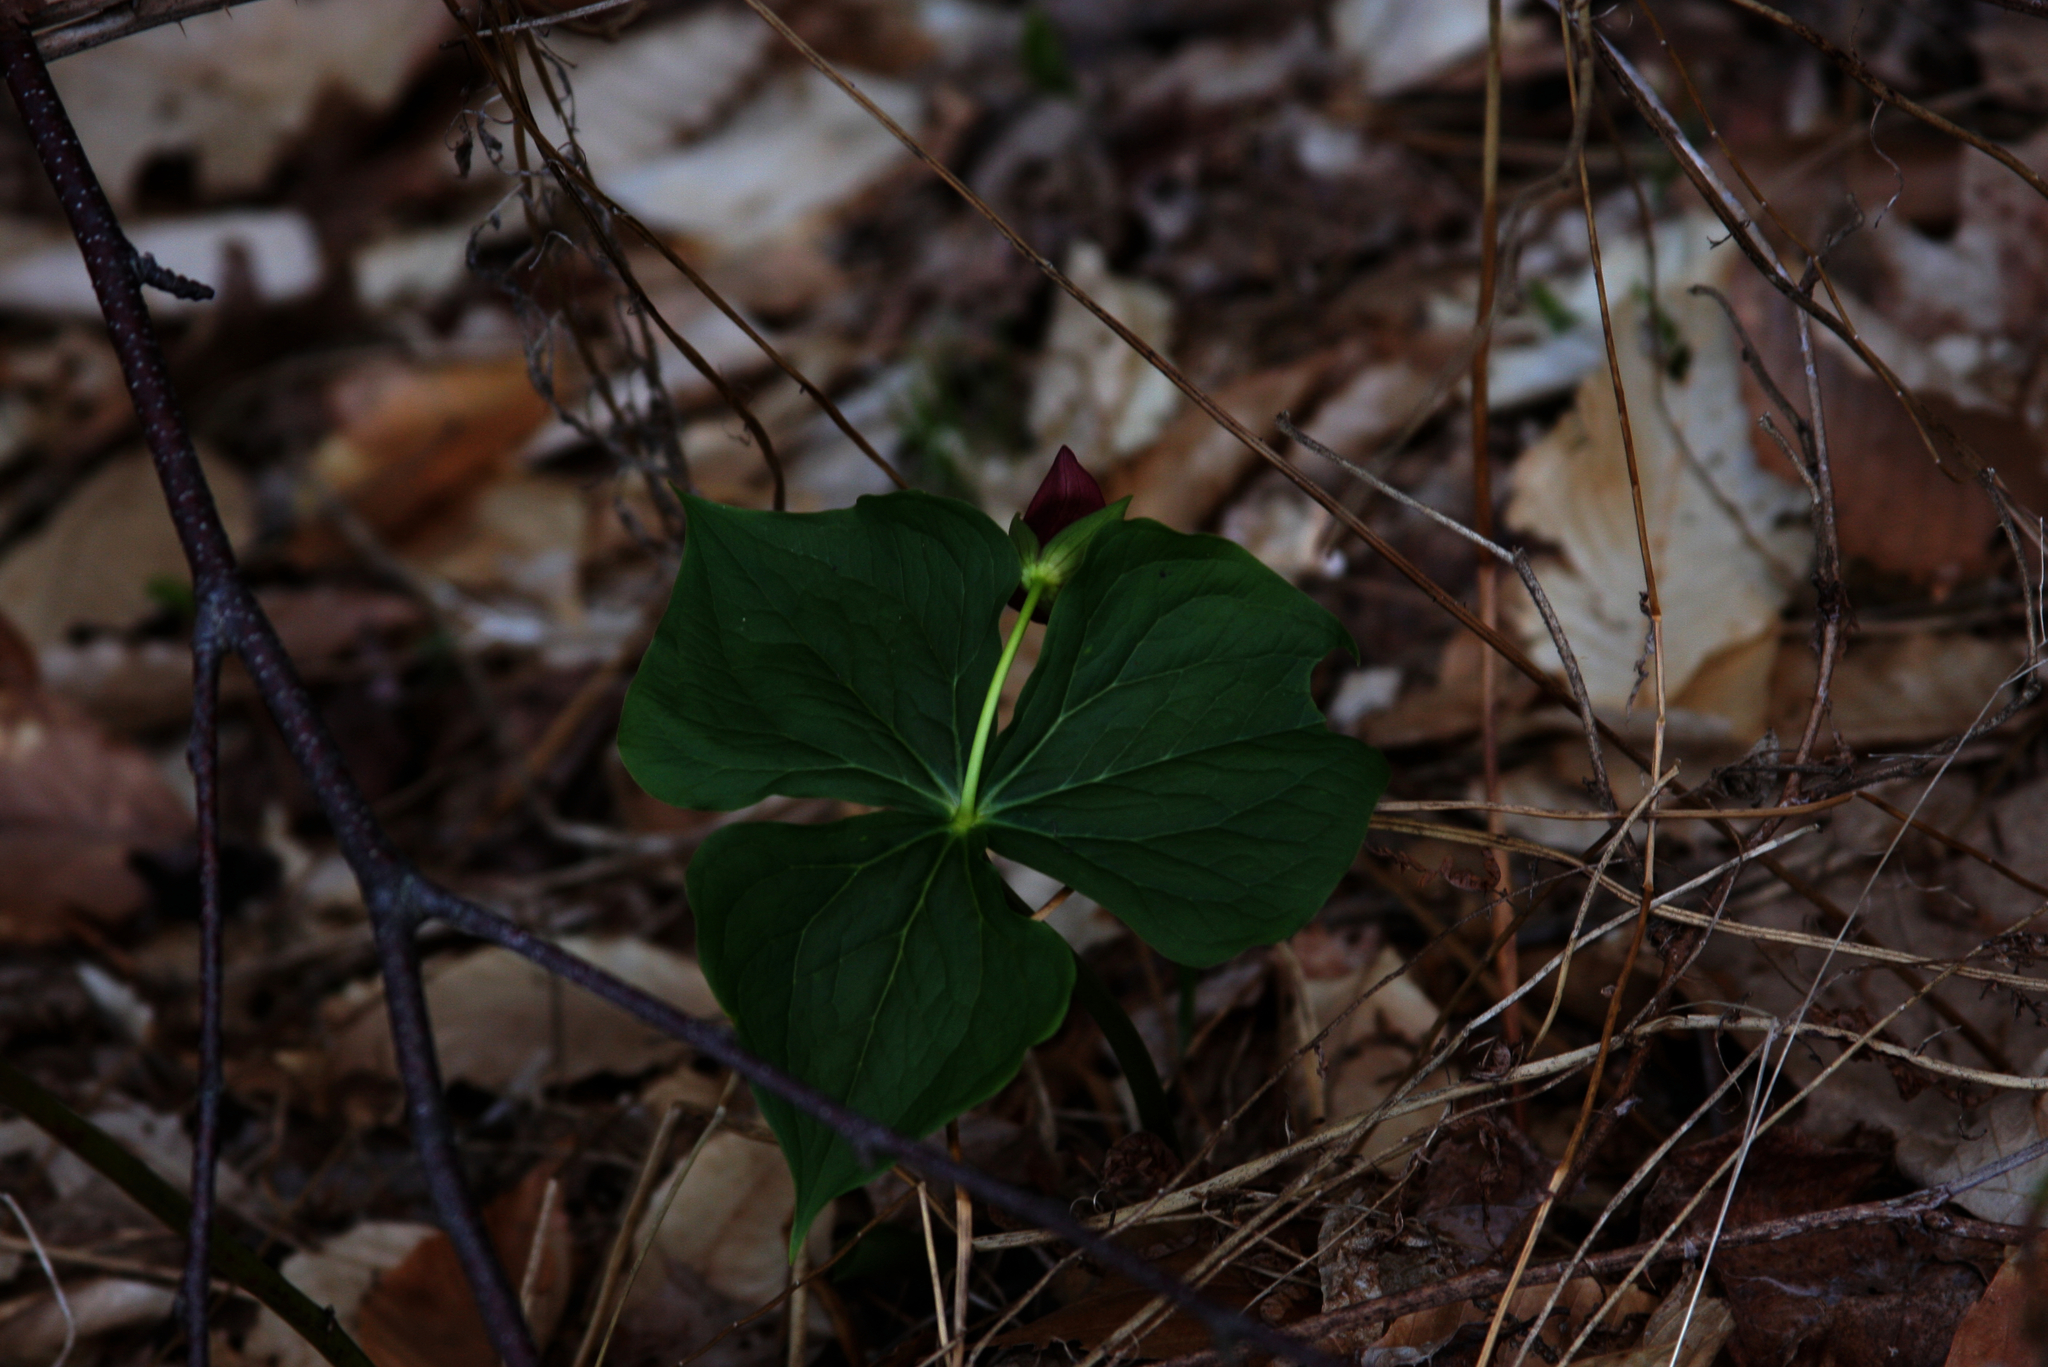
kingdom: Plantae
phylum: Tracheophyta
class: Liliopsida
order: Liliales
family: Melanthiaceae
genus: Trillium
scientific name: Trillium erectum
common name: Purple trillium
